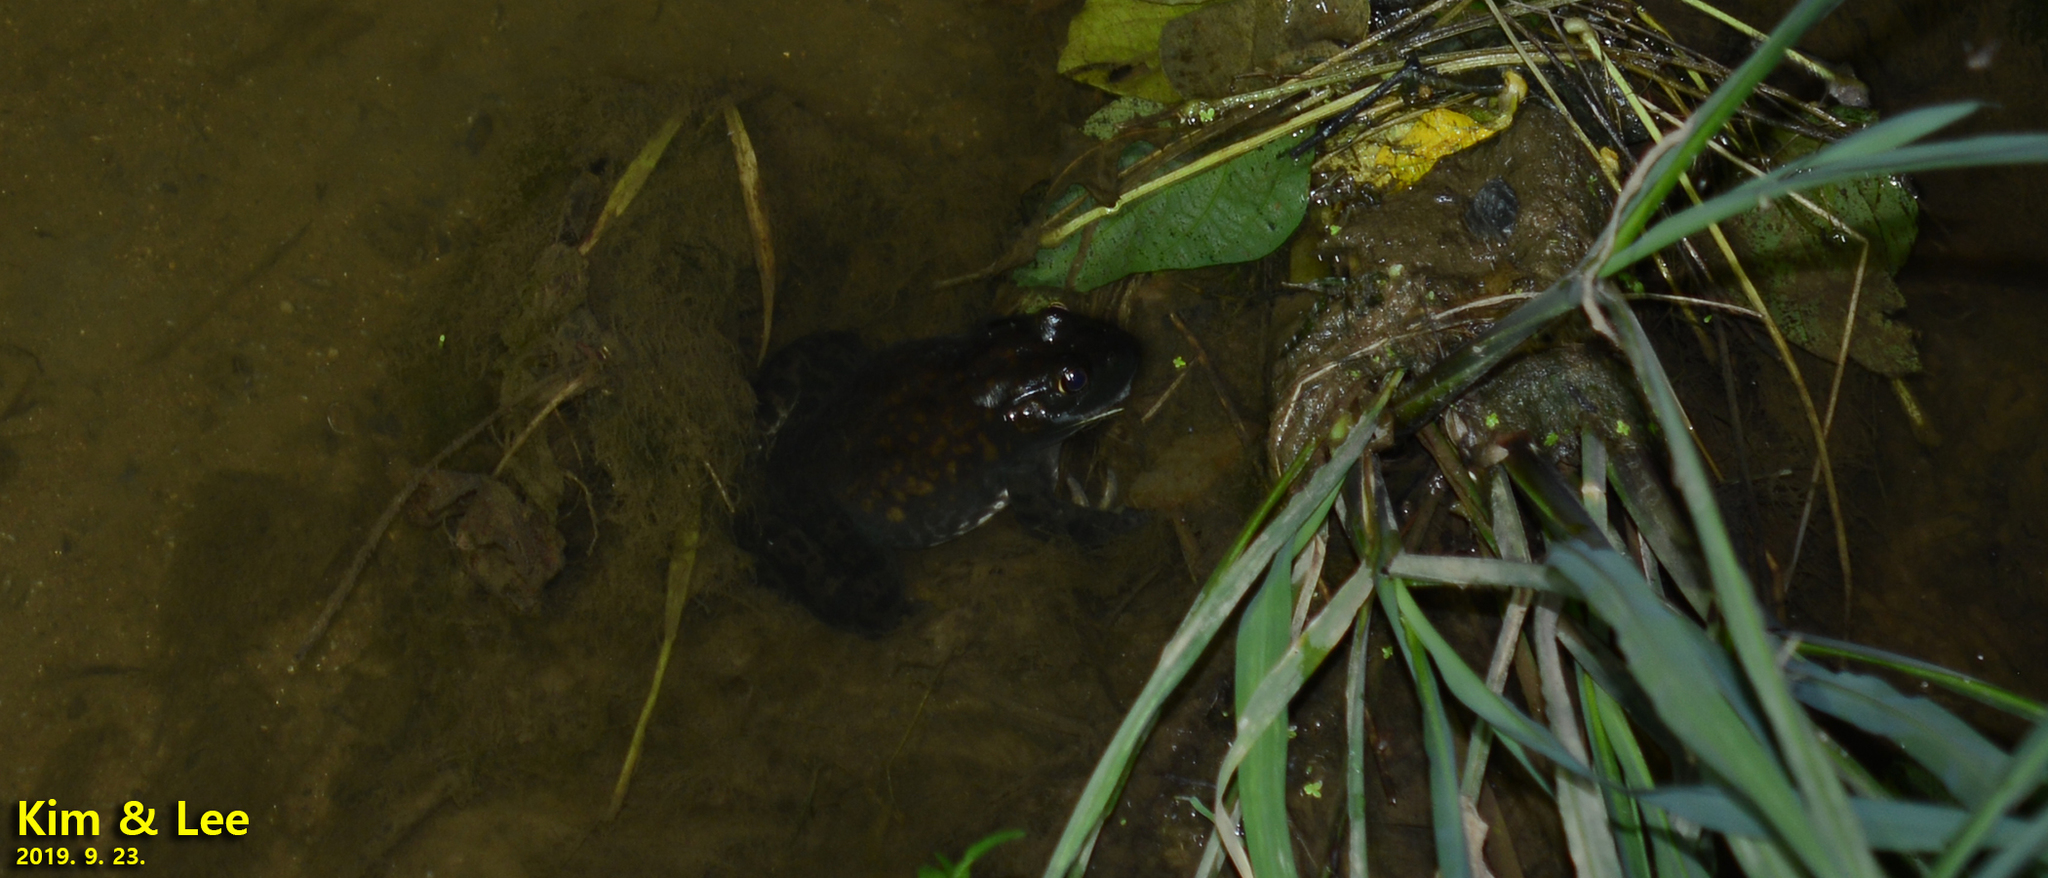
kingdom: Animalia
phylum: Chordata
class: Amphibia
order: Anura
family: Ranidae
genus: Lithobates
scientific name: Lithobates catesbeianus
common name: American bullfrog
